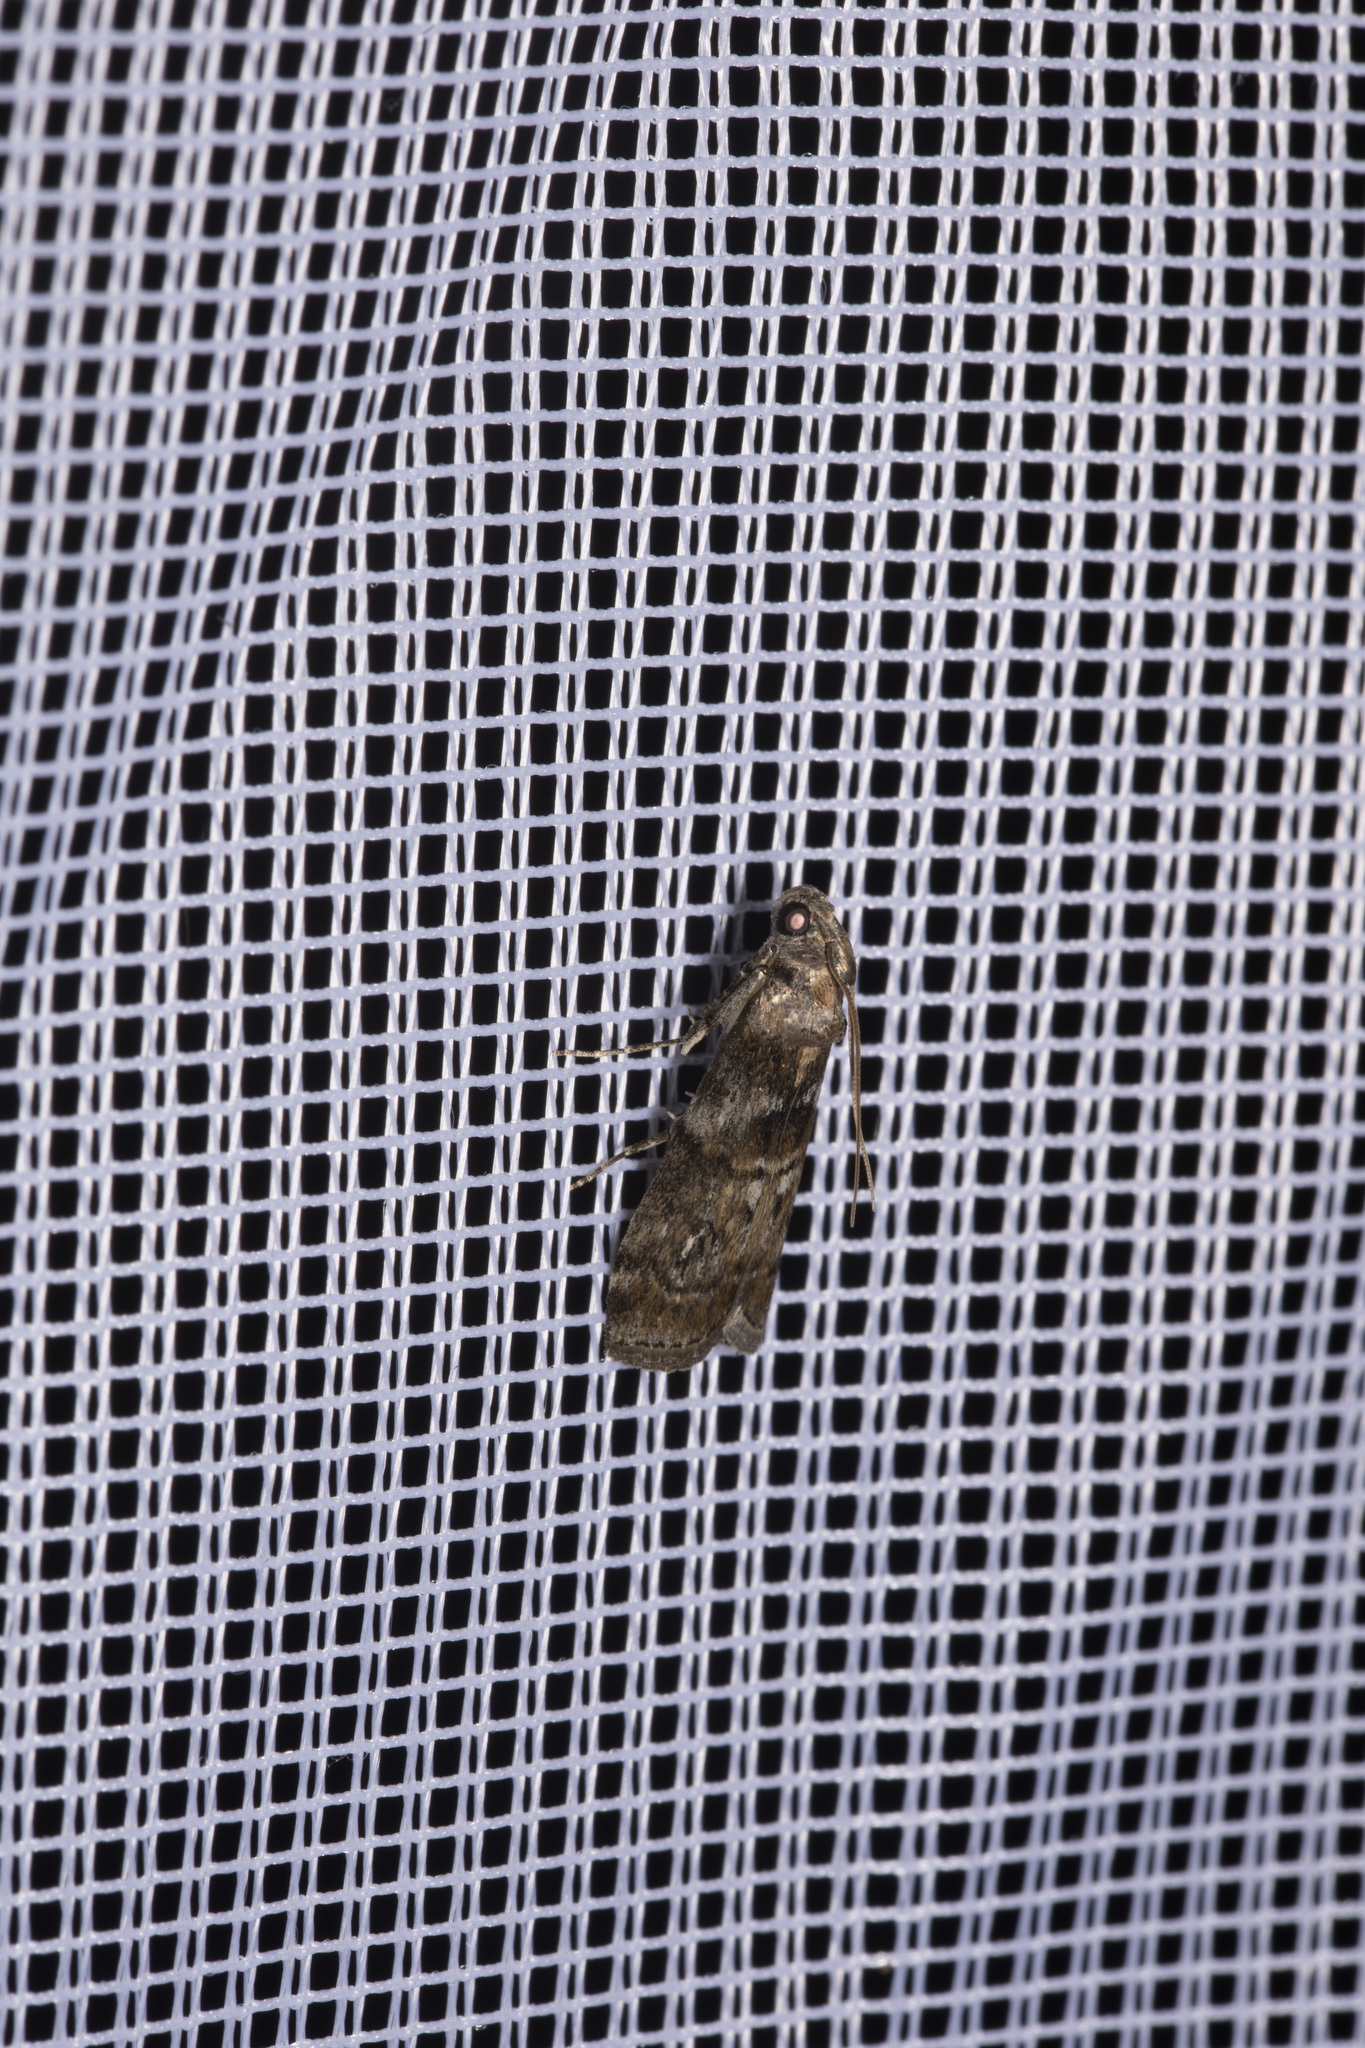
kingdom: Animalia
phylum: Arthropoda
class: Insecta
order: Lepidoptera
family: Pyralidae
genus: Phycita
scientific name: Phycita roborella
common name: Dotted oak knot-horn
